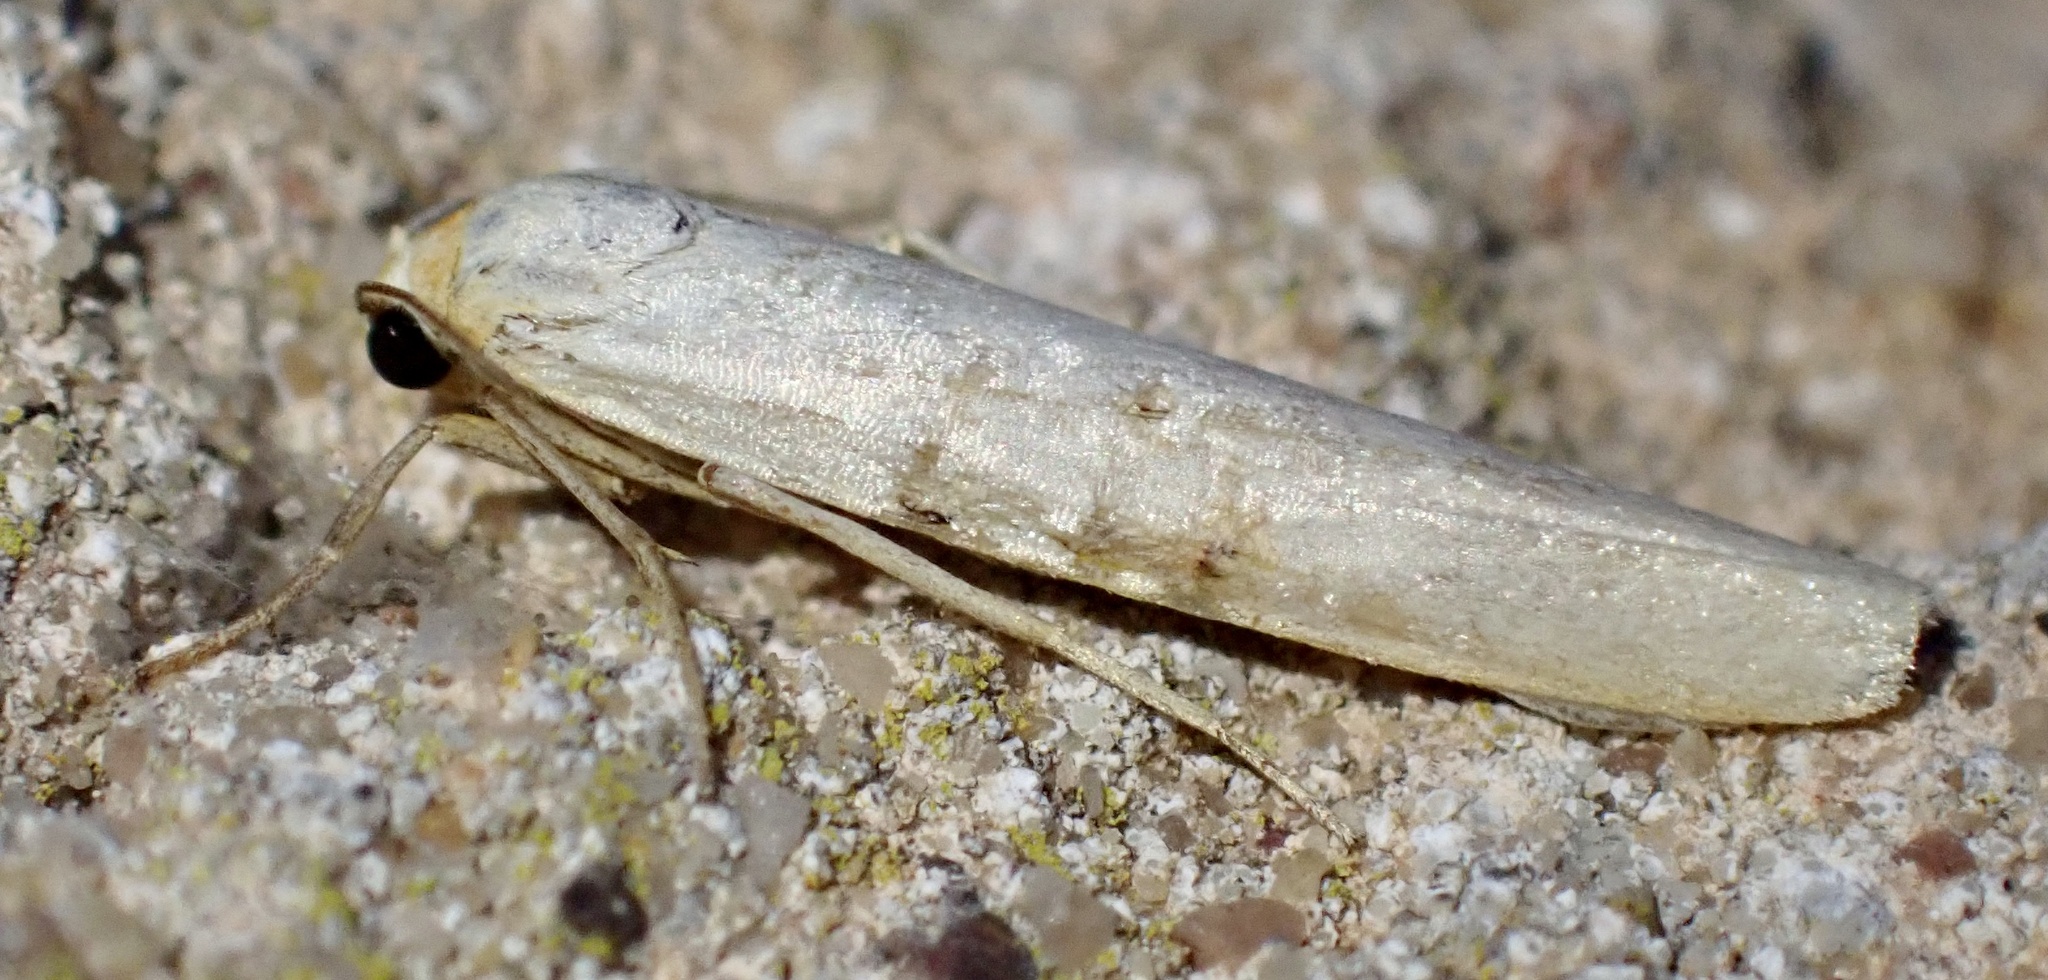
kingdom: Animalia
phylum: Arthropoda
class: Insecta
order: Lepidoptera
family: Erebidae
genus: Eilema
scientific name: Eilema caniola
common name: Hoary footman
